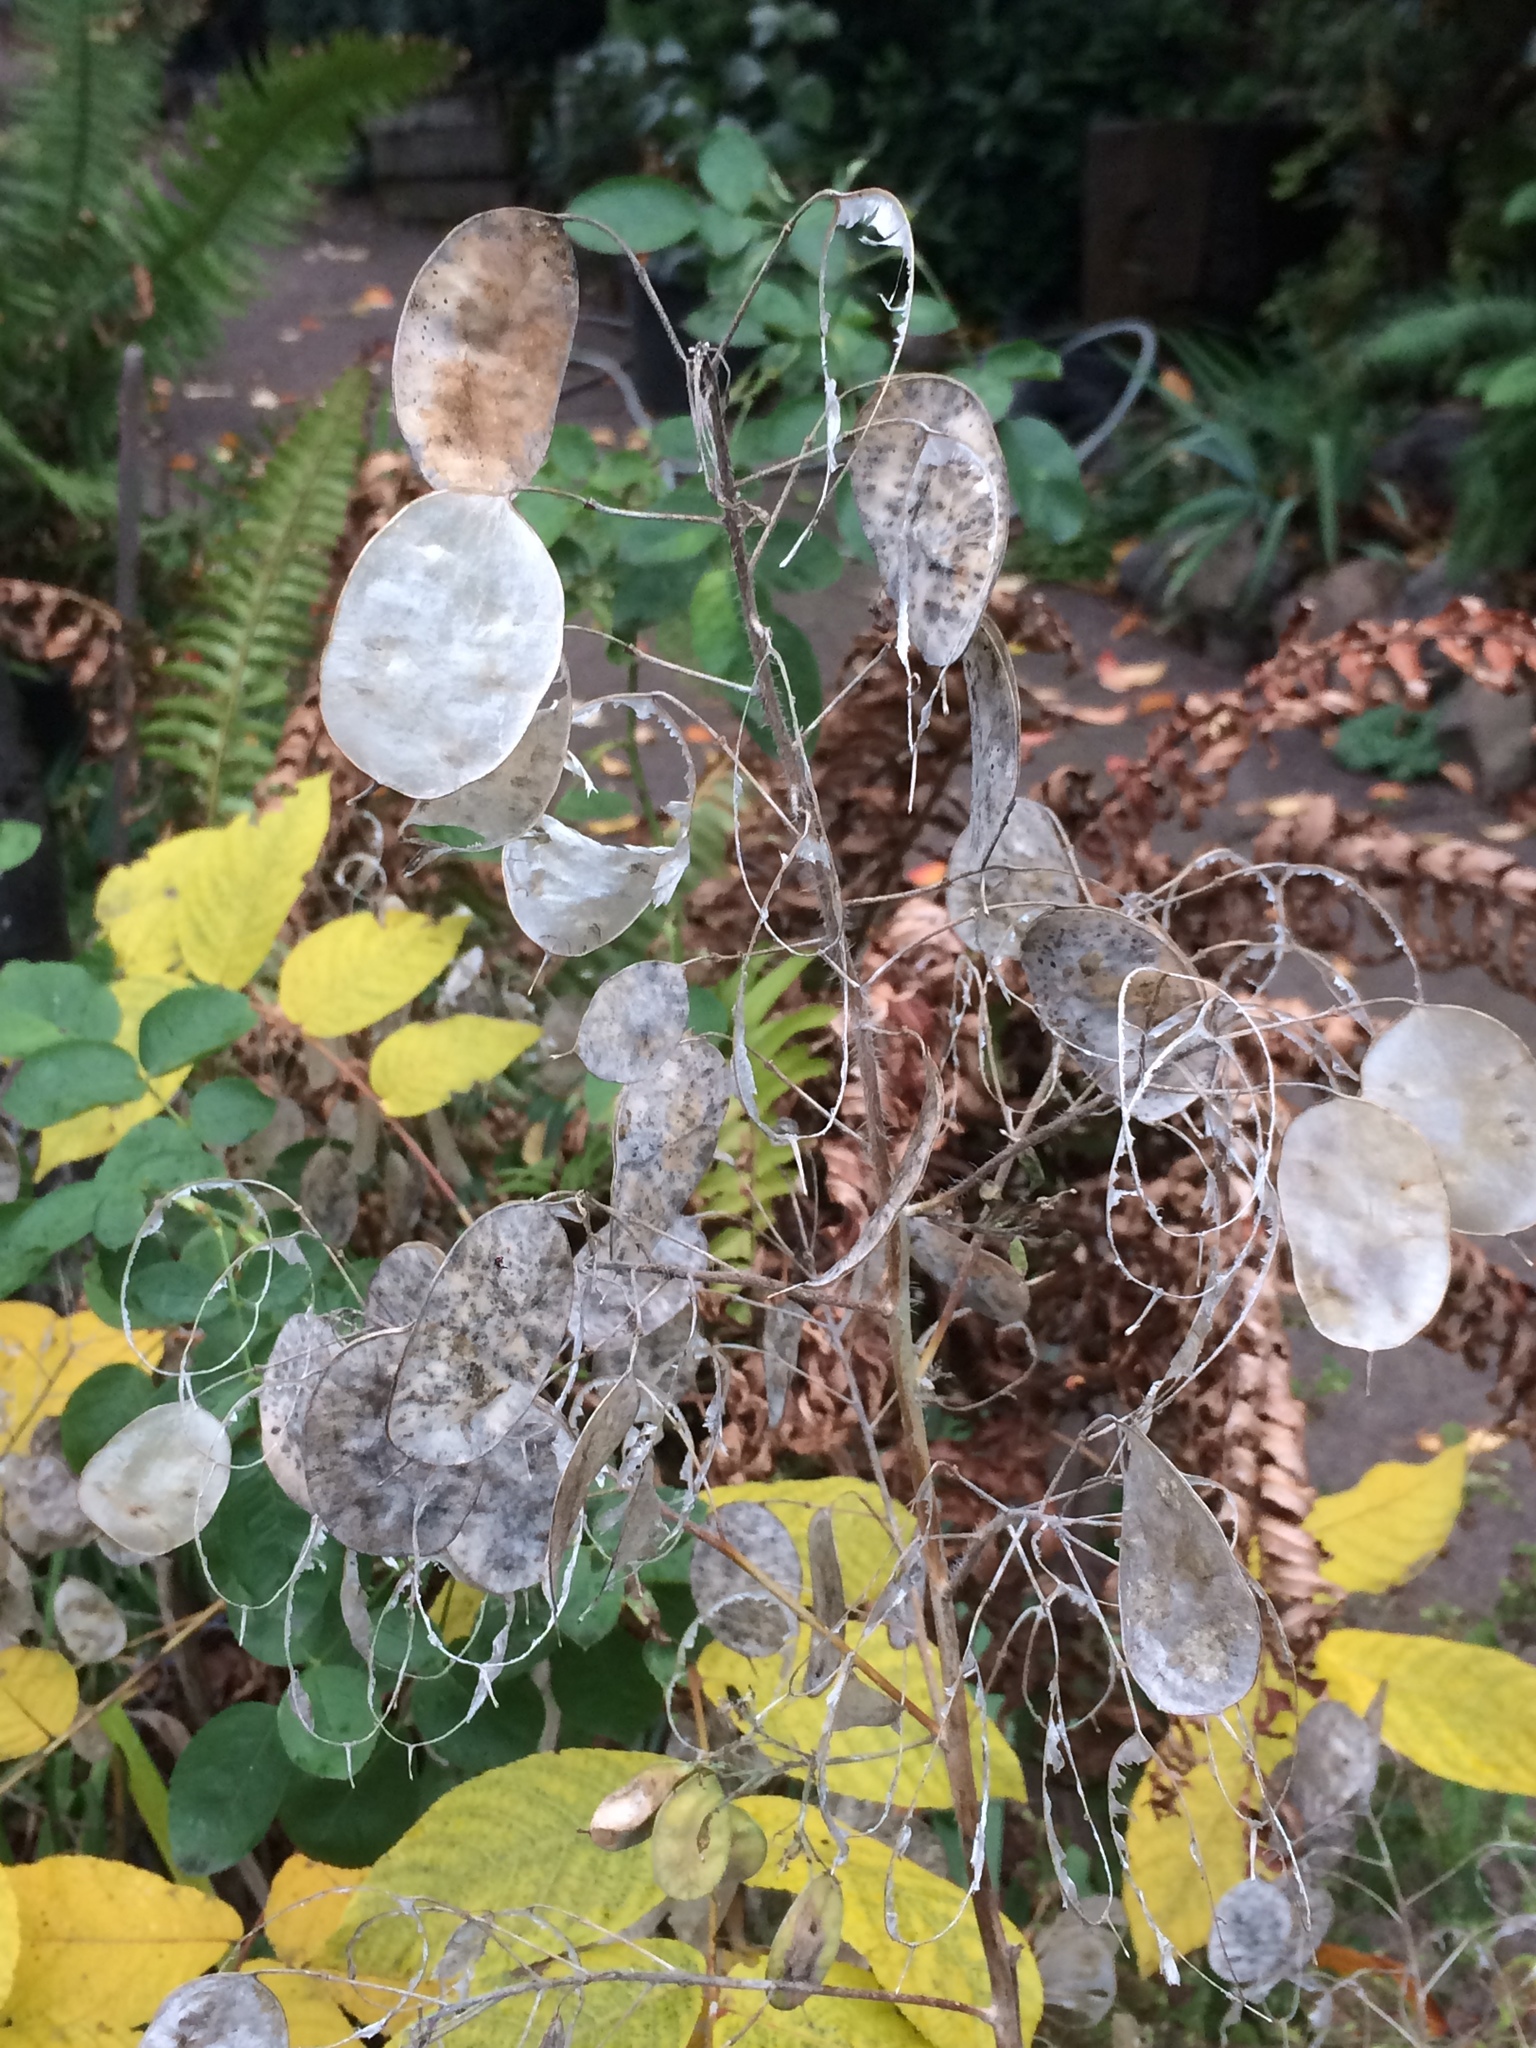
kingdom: Plantae
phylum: Tracheophyta
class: Magnoliopsida
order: Brassicales
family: Brassicaceae
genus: Lunaria
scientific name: Lunaria annua
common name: Honesty
